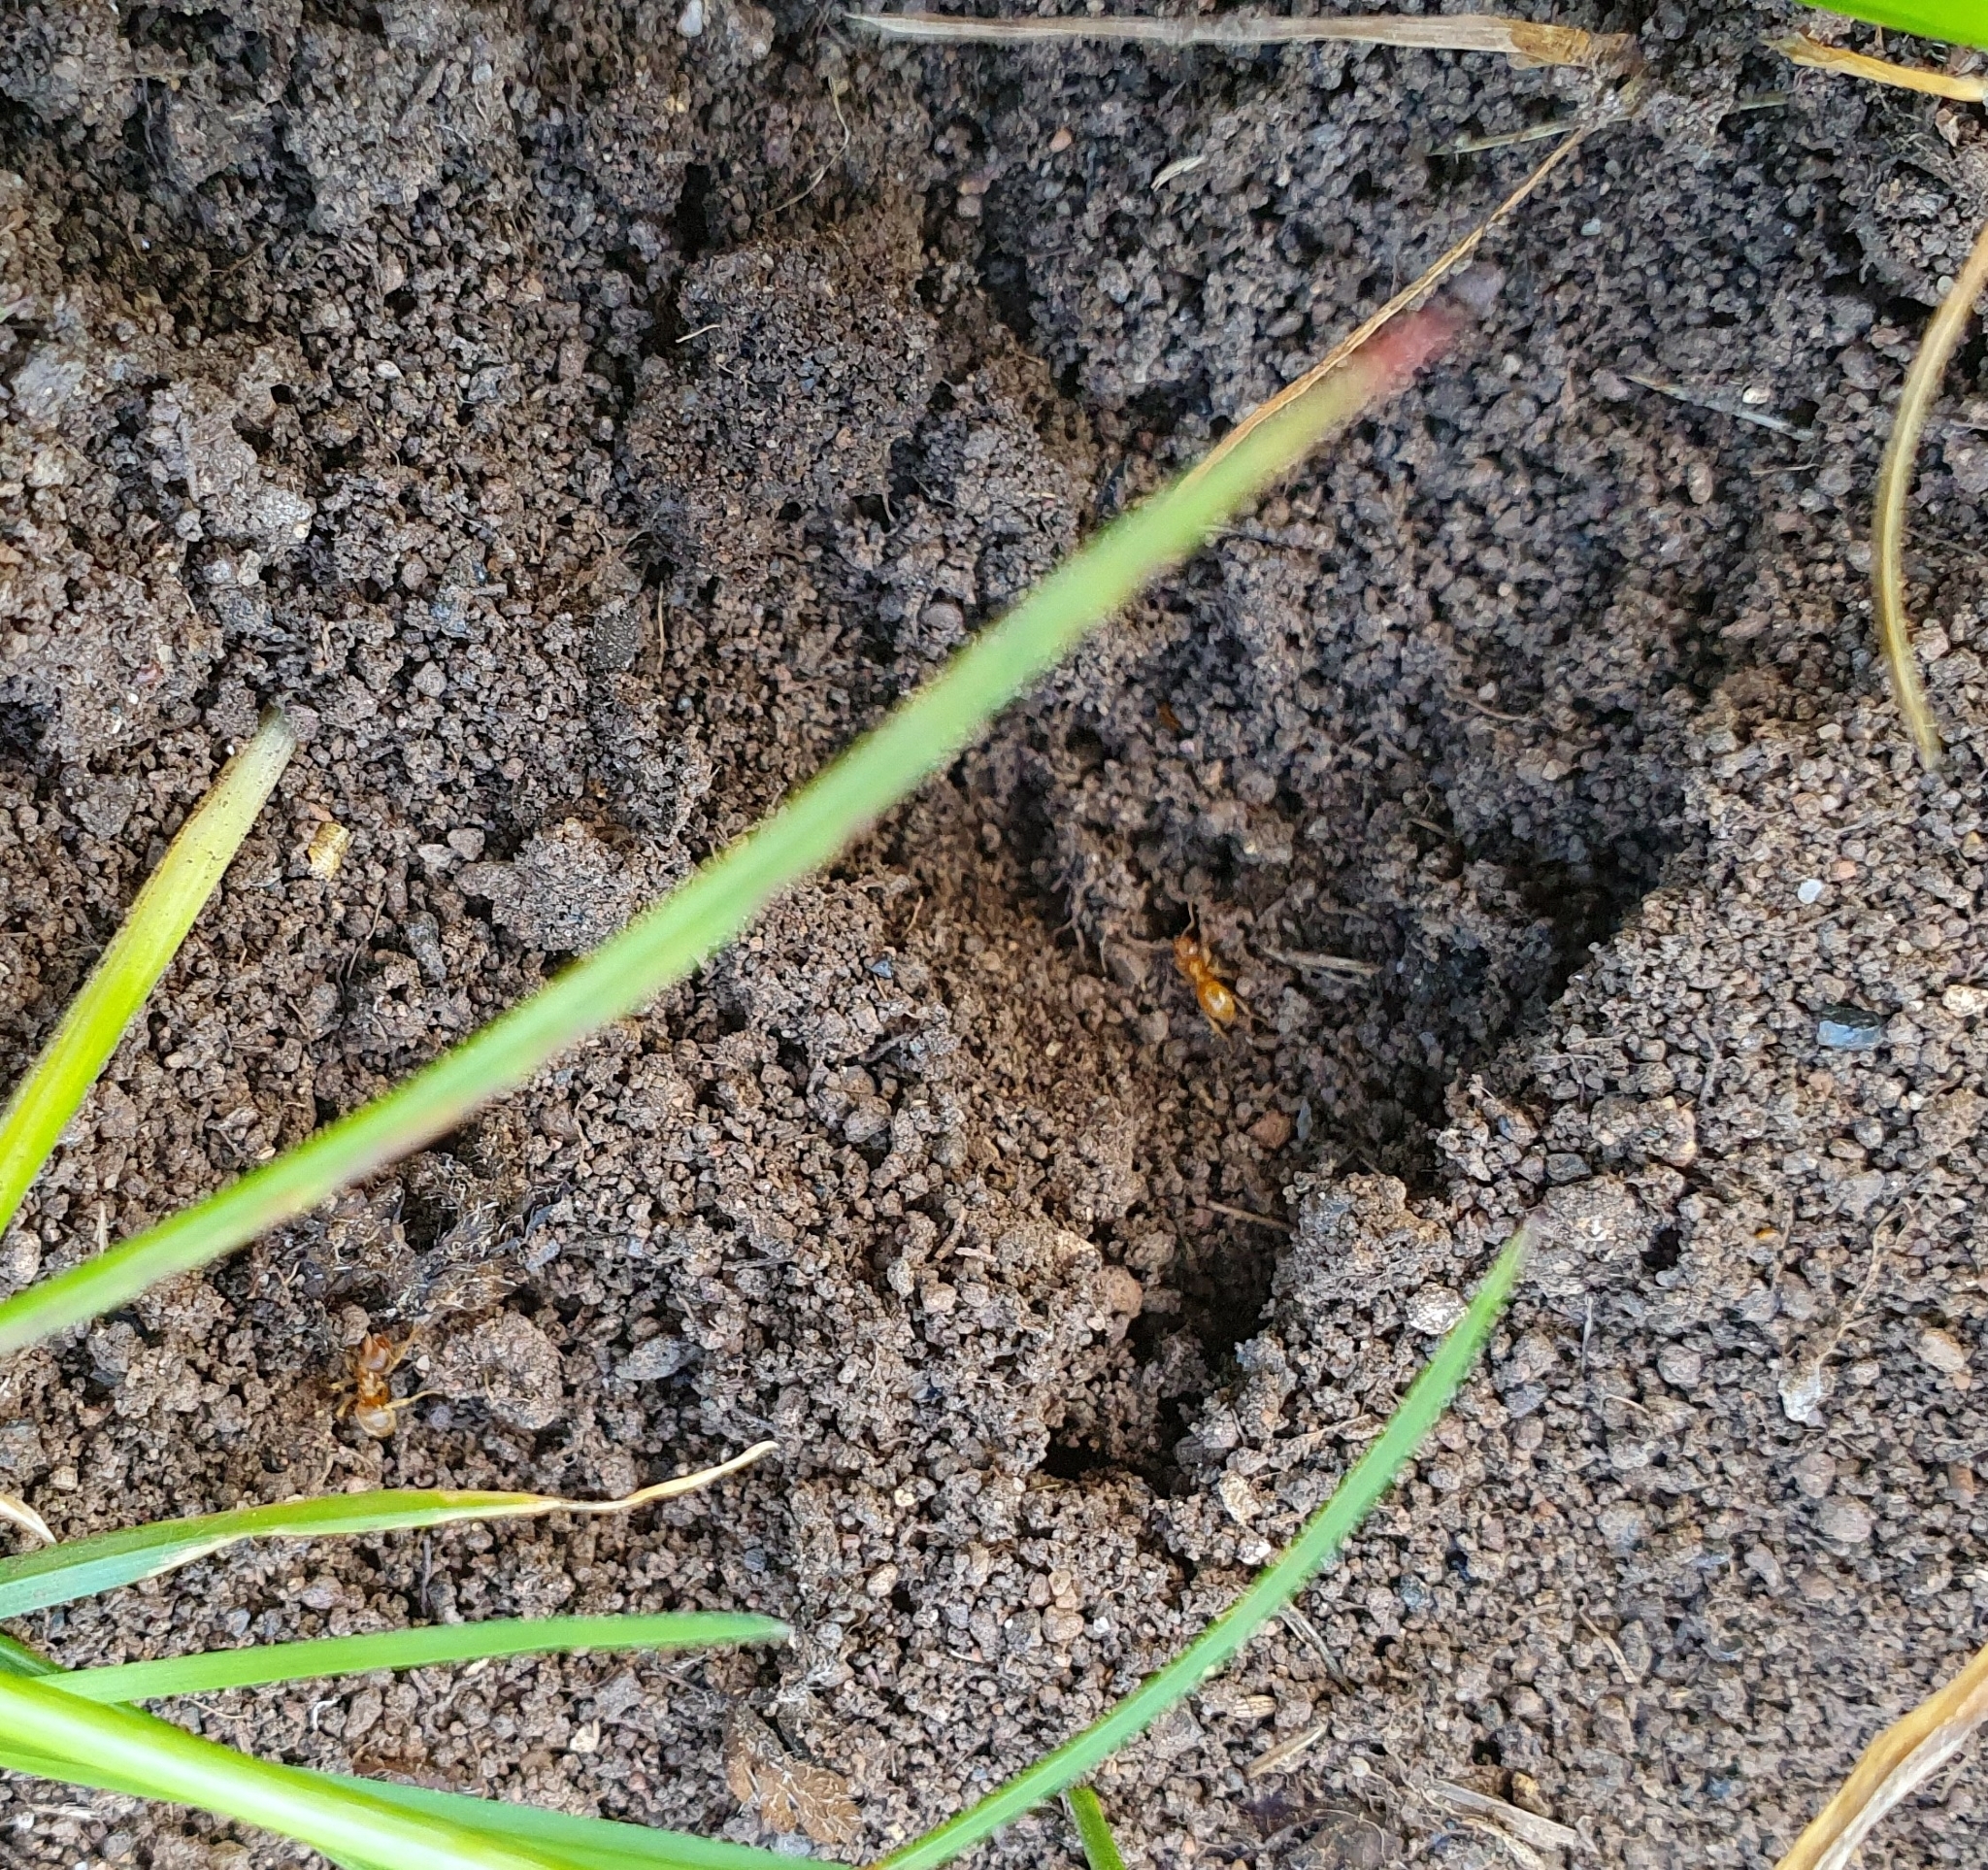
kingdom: Animalia
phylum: Arthropoda
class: Insecta
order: Hymenoptera
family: Formicidae
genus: Lasius
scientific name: Lasius flavus
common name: Blond field ant
